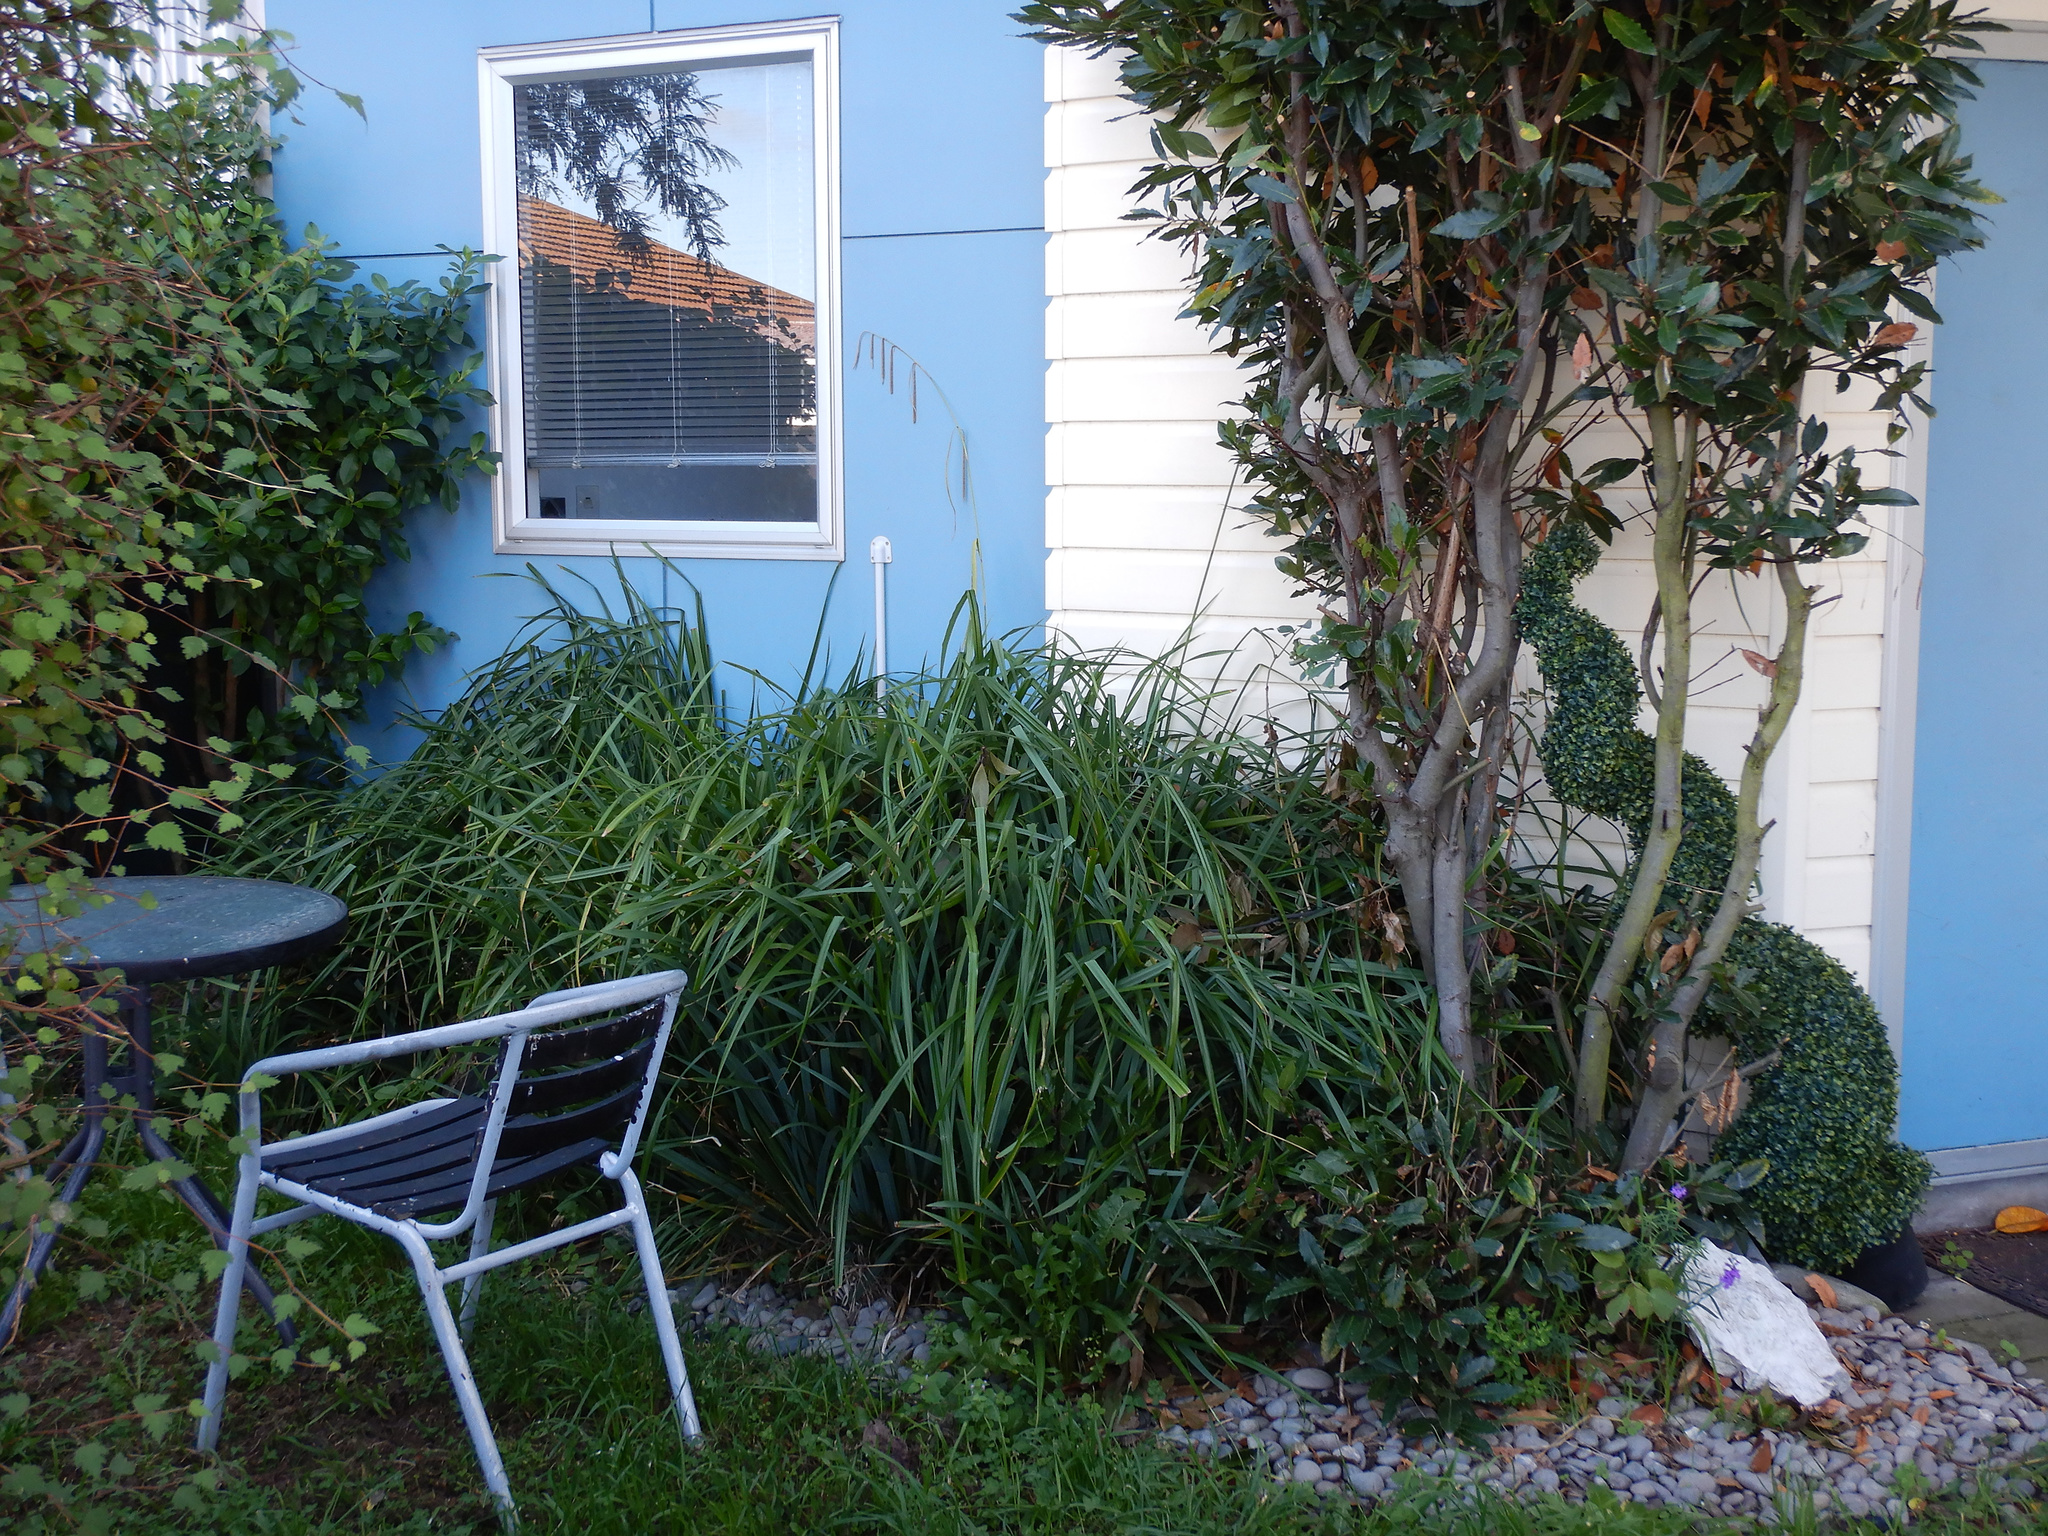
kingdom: Plantae
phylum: Tracheophyta
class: Liliopsida
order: Poales
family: Cyperaceae
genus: Carex
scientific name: Carex pendula
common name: Pendulous sedge
